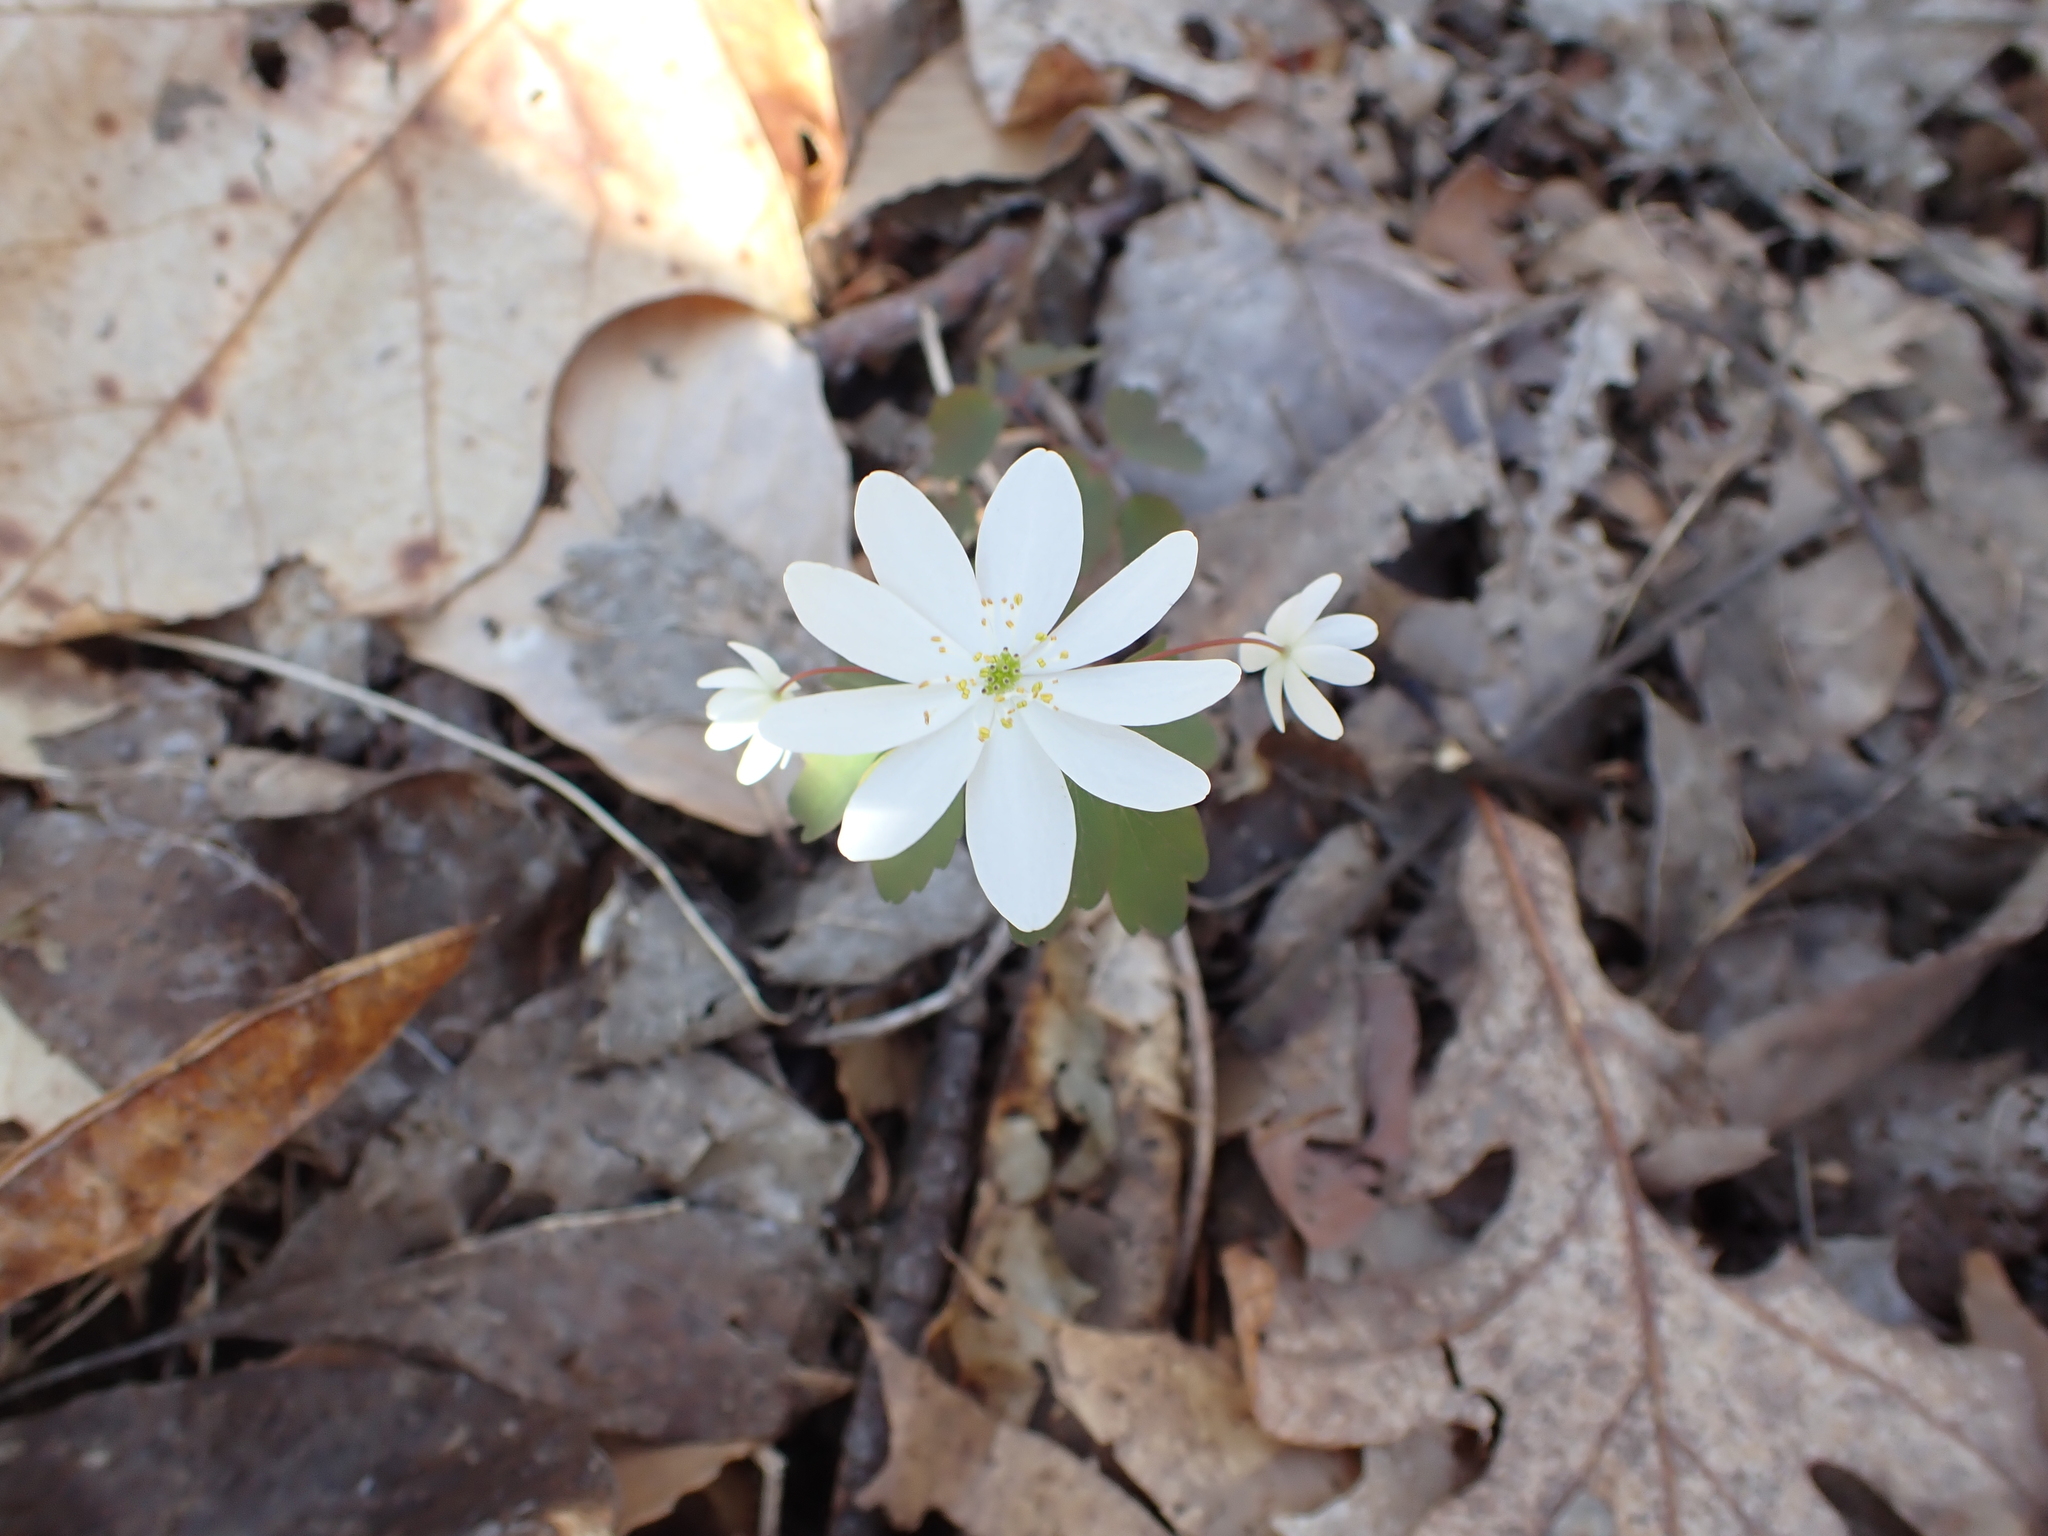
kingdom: Plantae
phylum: Tracheophyta
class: Magnoliopsida
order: Ranunculales
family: Ranunculaceae
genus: Thalictrum
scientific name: Thalictrum thalictroides
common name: Rue-anemone
